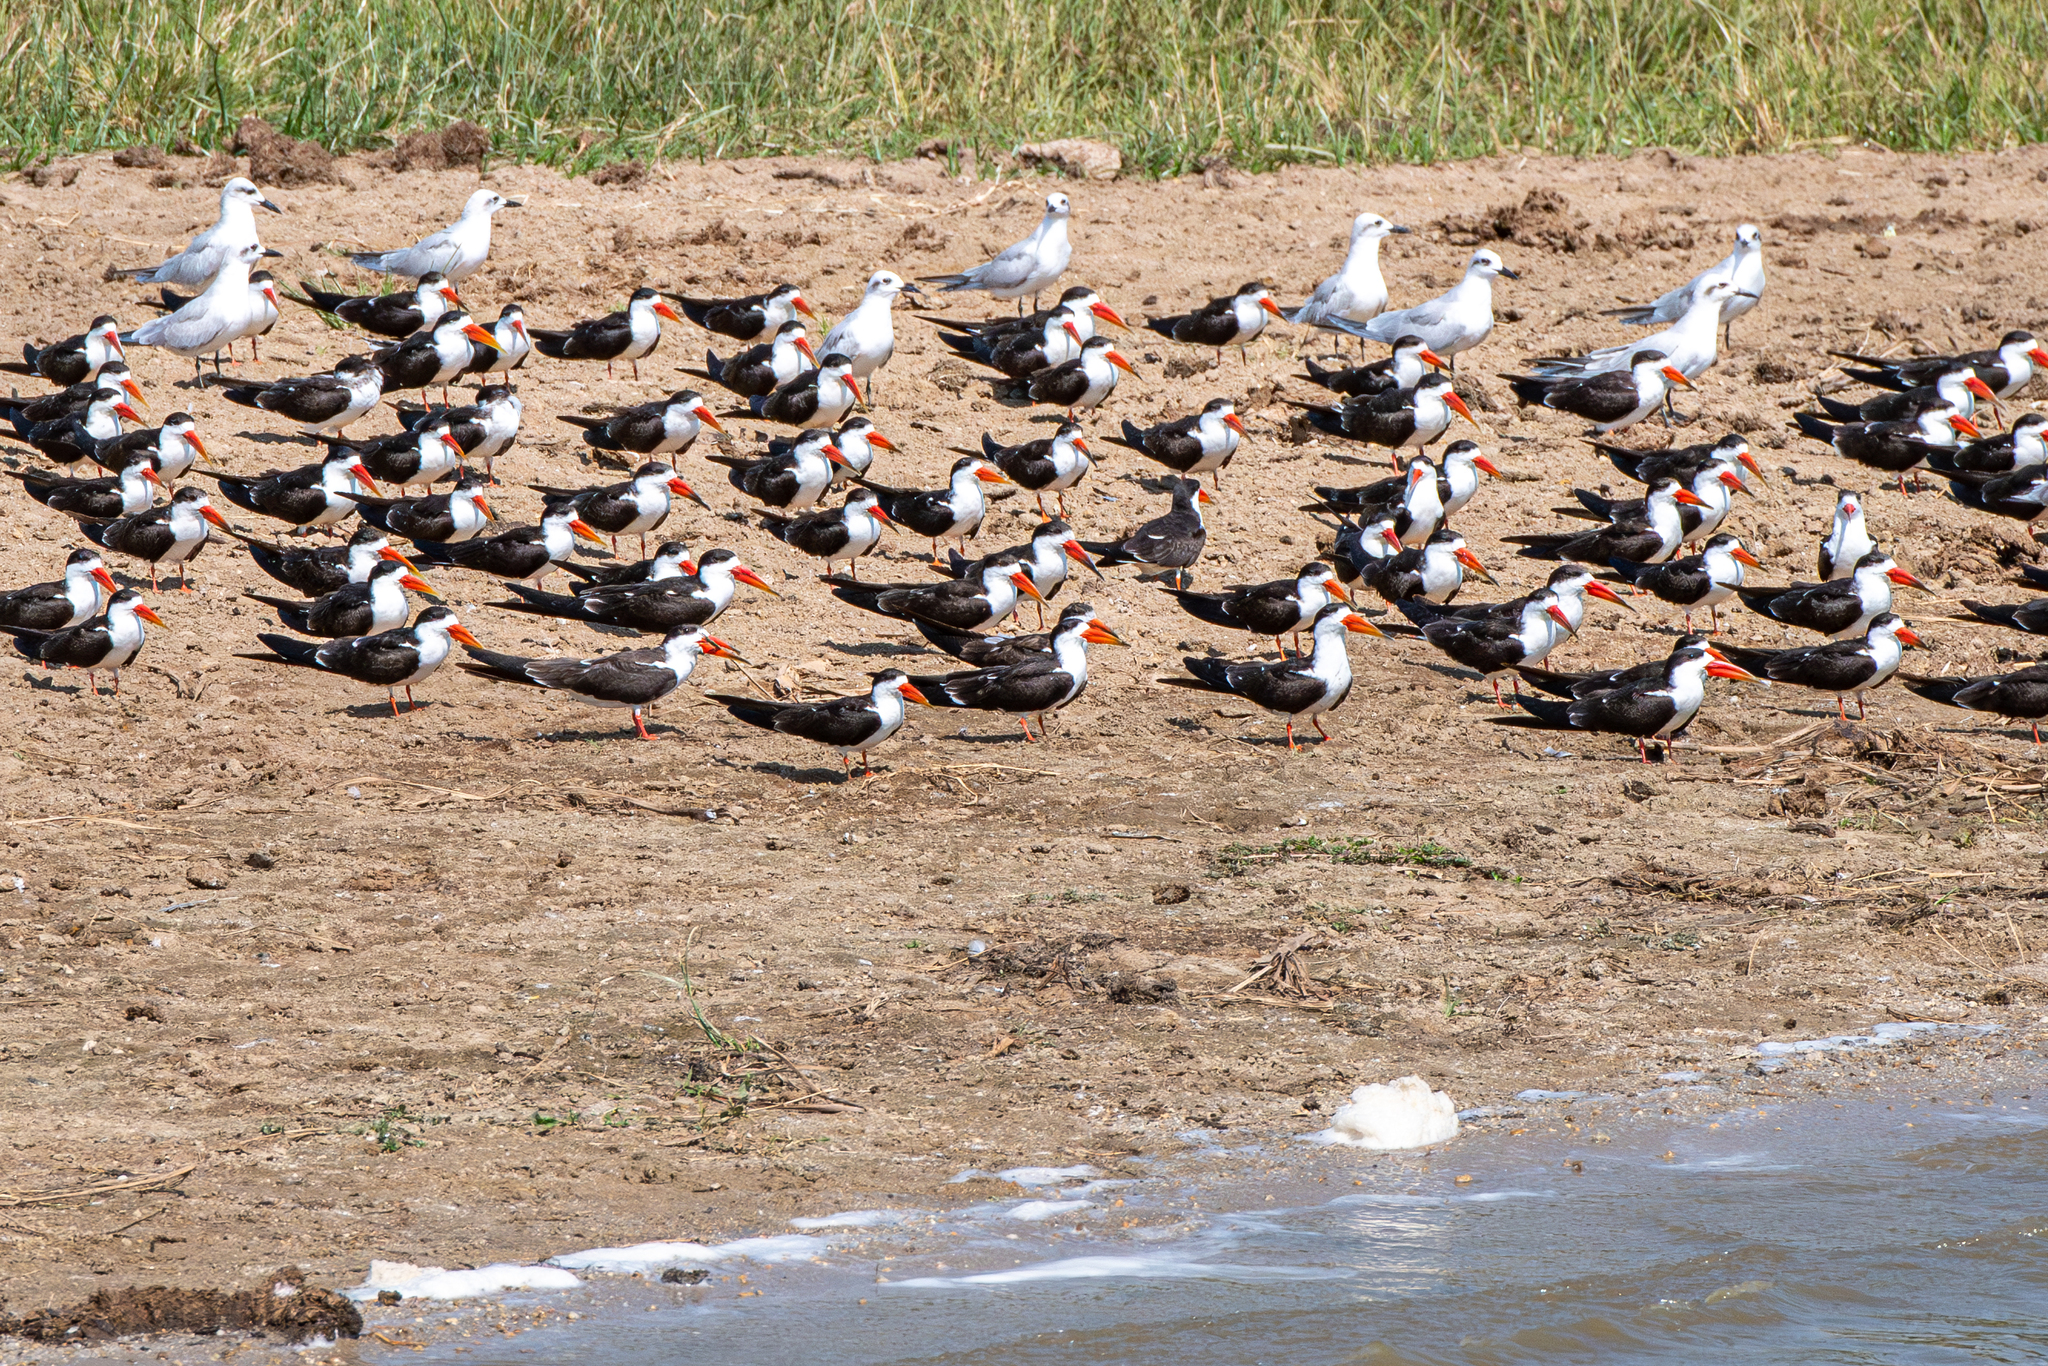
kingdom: Animalia
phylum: Chordata
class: Aves
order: Charadriiformes
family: Laridae
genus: Rynchops
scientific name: Rynchops flavirostris
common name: African skimmer
